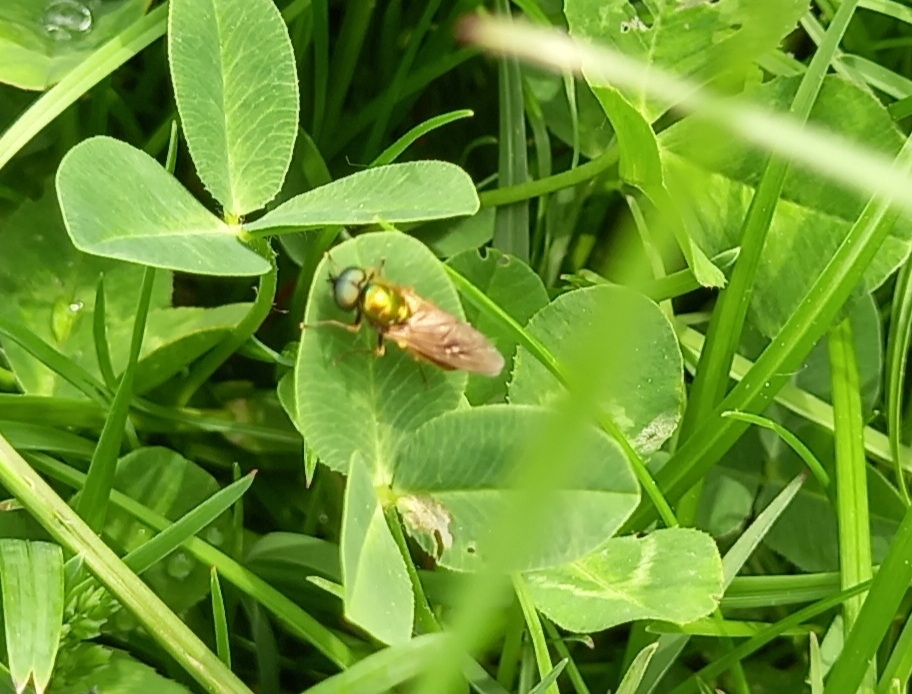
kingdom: Animalia
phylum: Arthropoda
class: Insecta
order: Diptera
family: Stratiomyidae
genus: Chloromyia
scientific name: Chloromyia formosa
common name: Soldier fly
